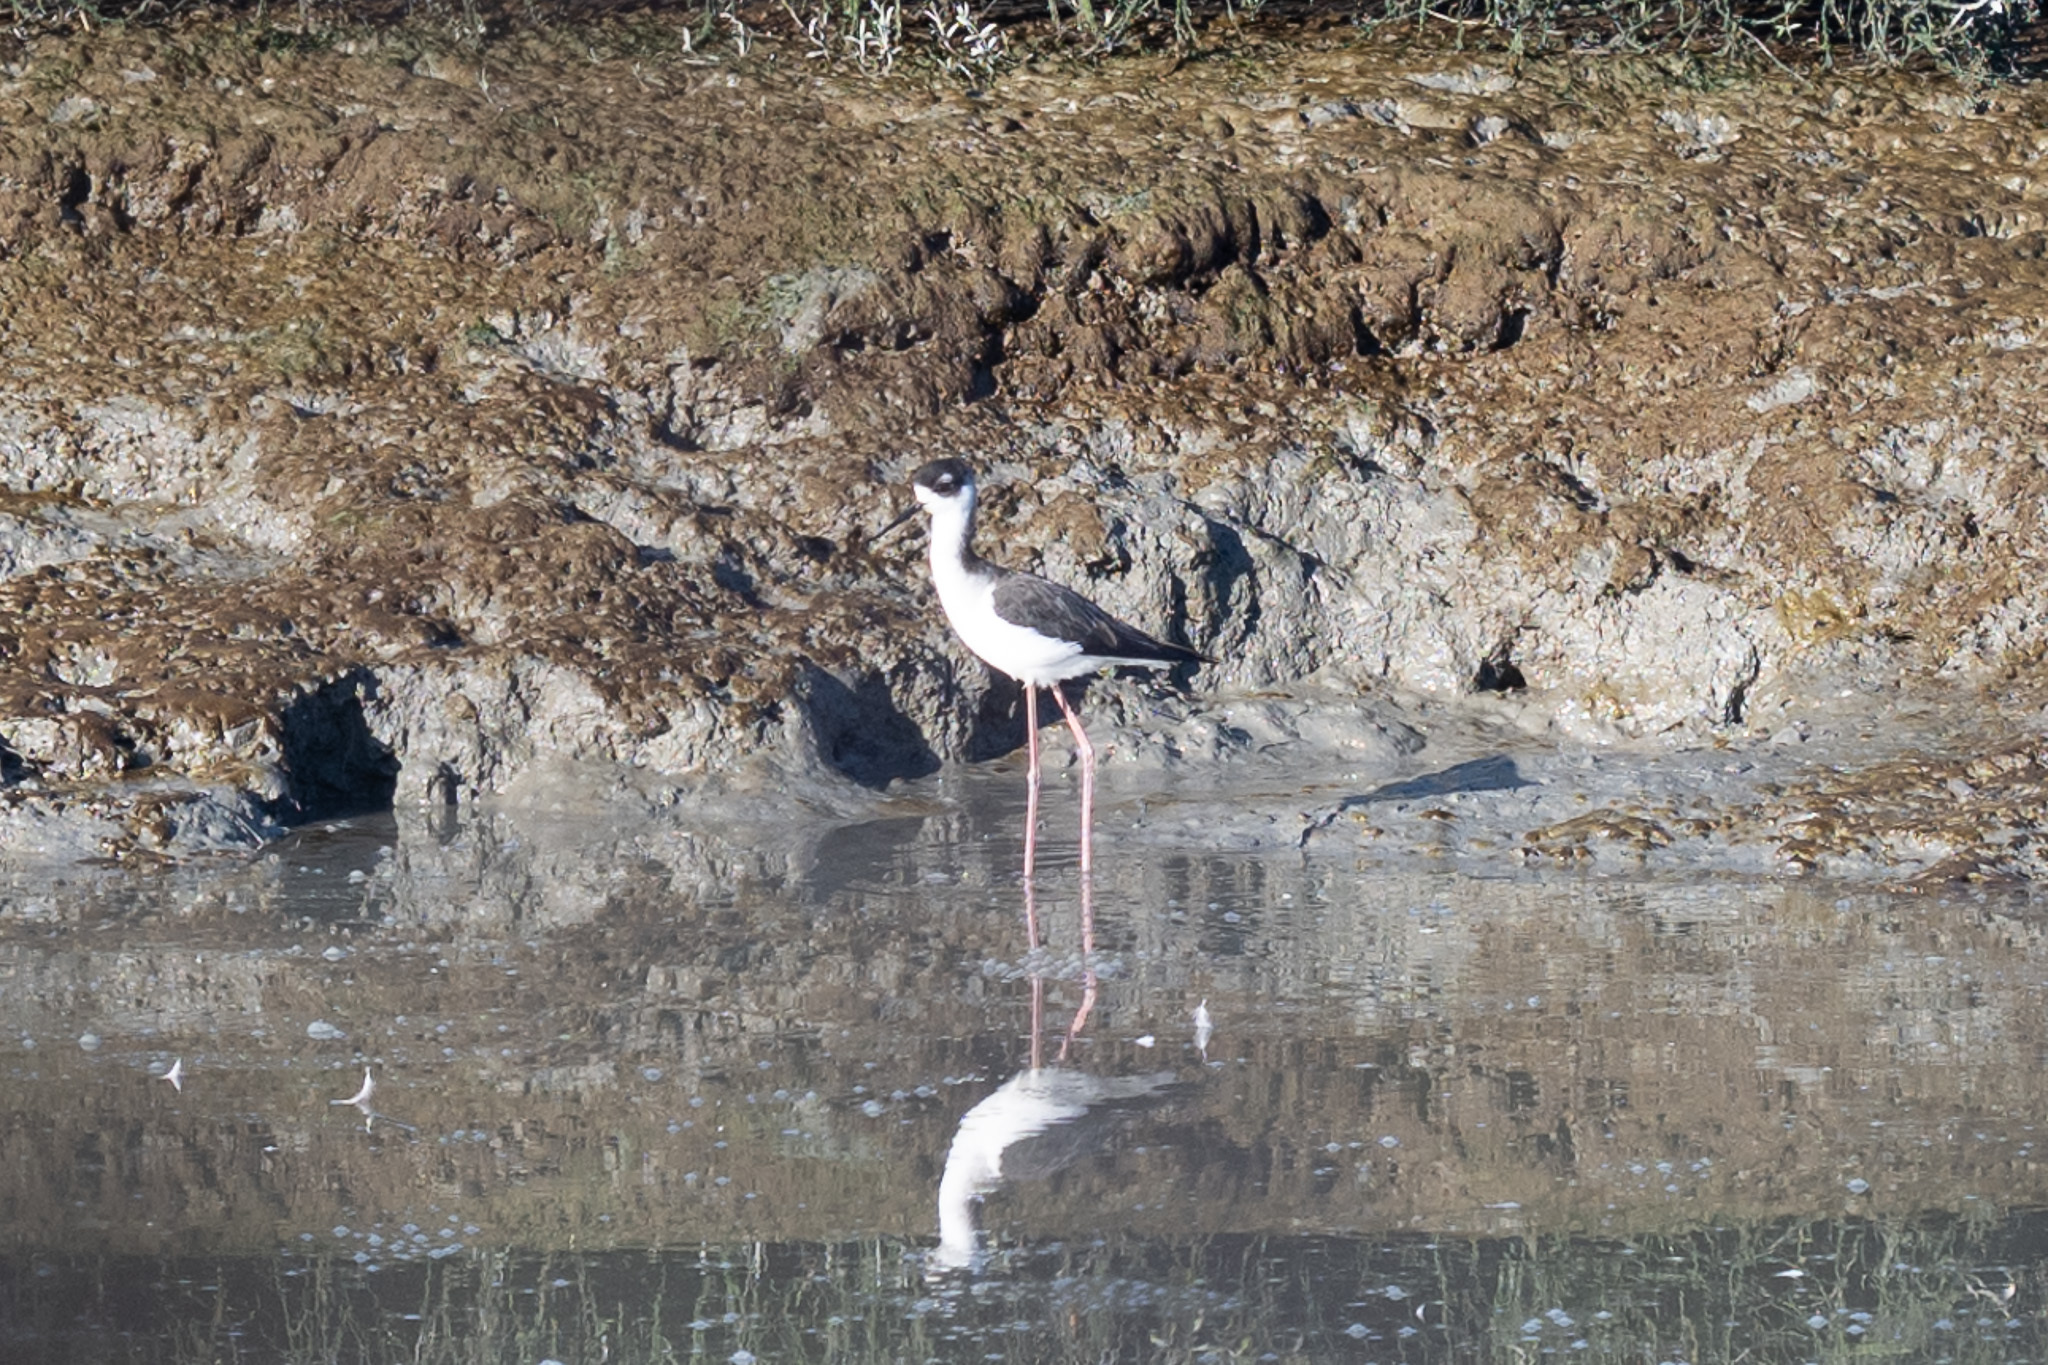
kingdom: Animalia
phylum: Chordata
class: Aves
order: Charadriiformes
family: Recurvirostridae
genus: Himantopus
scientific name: Himantopus mexicanus
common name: Black-necked stilt
